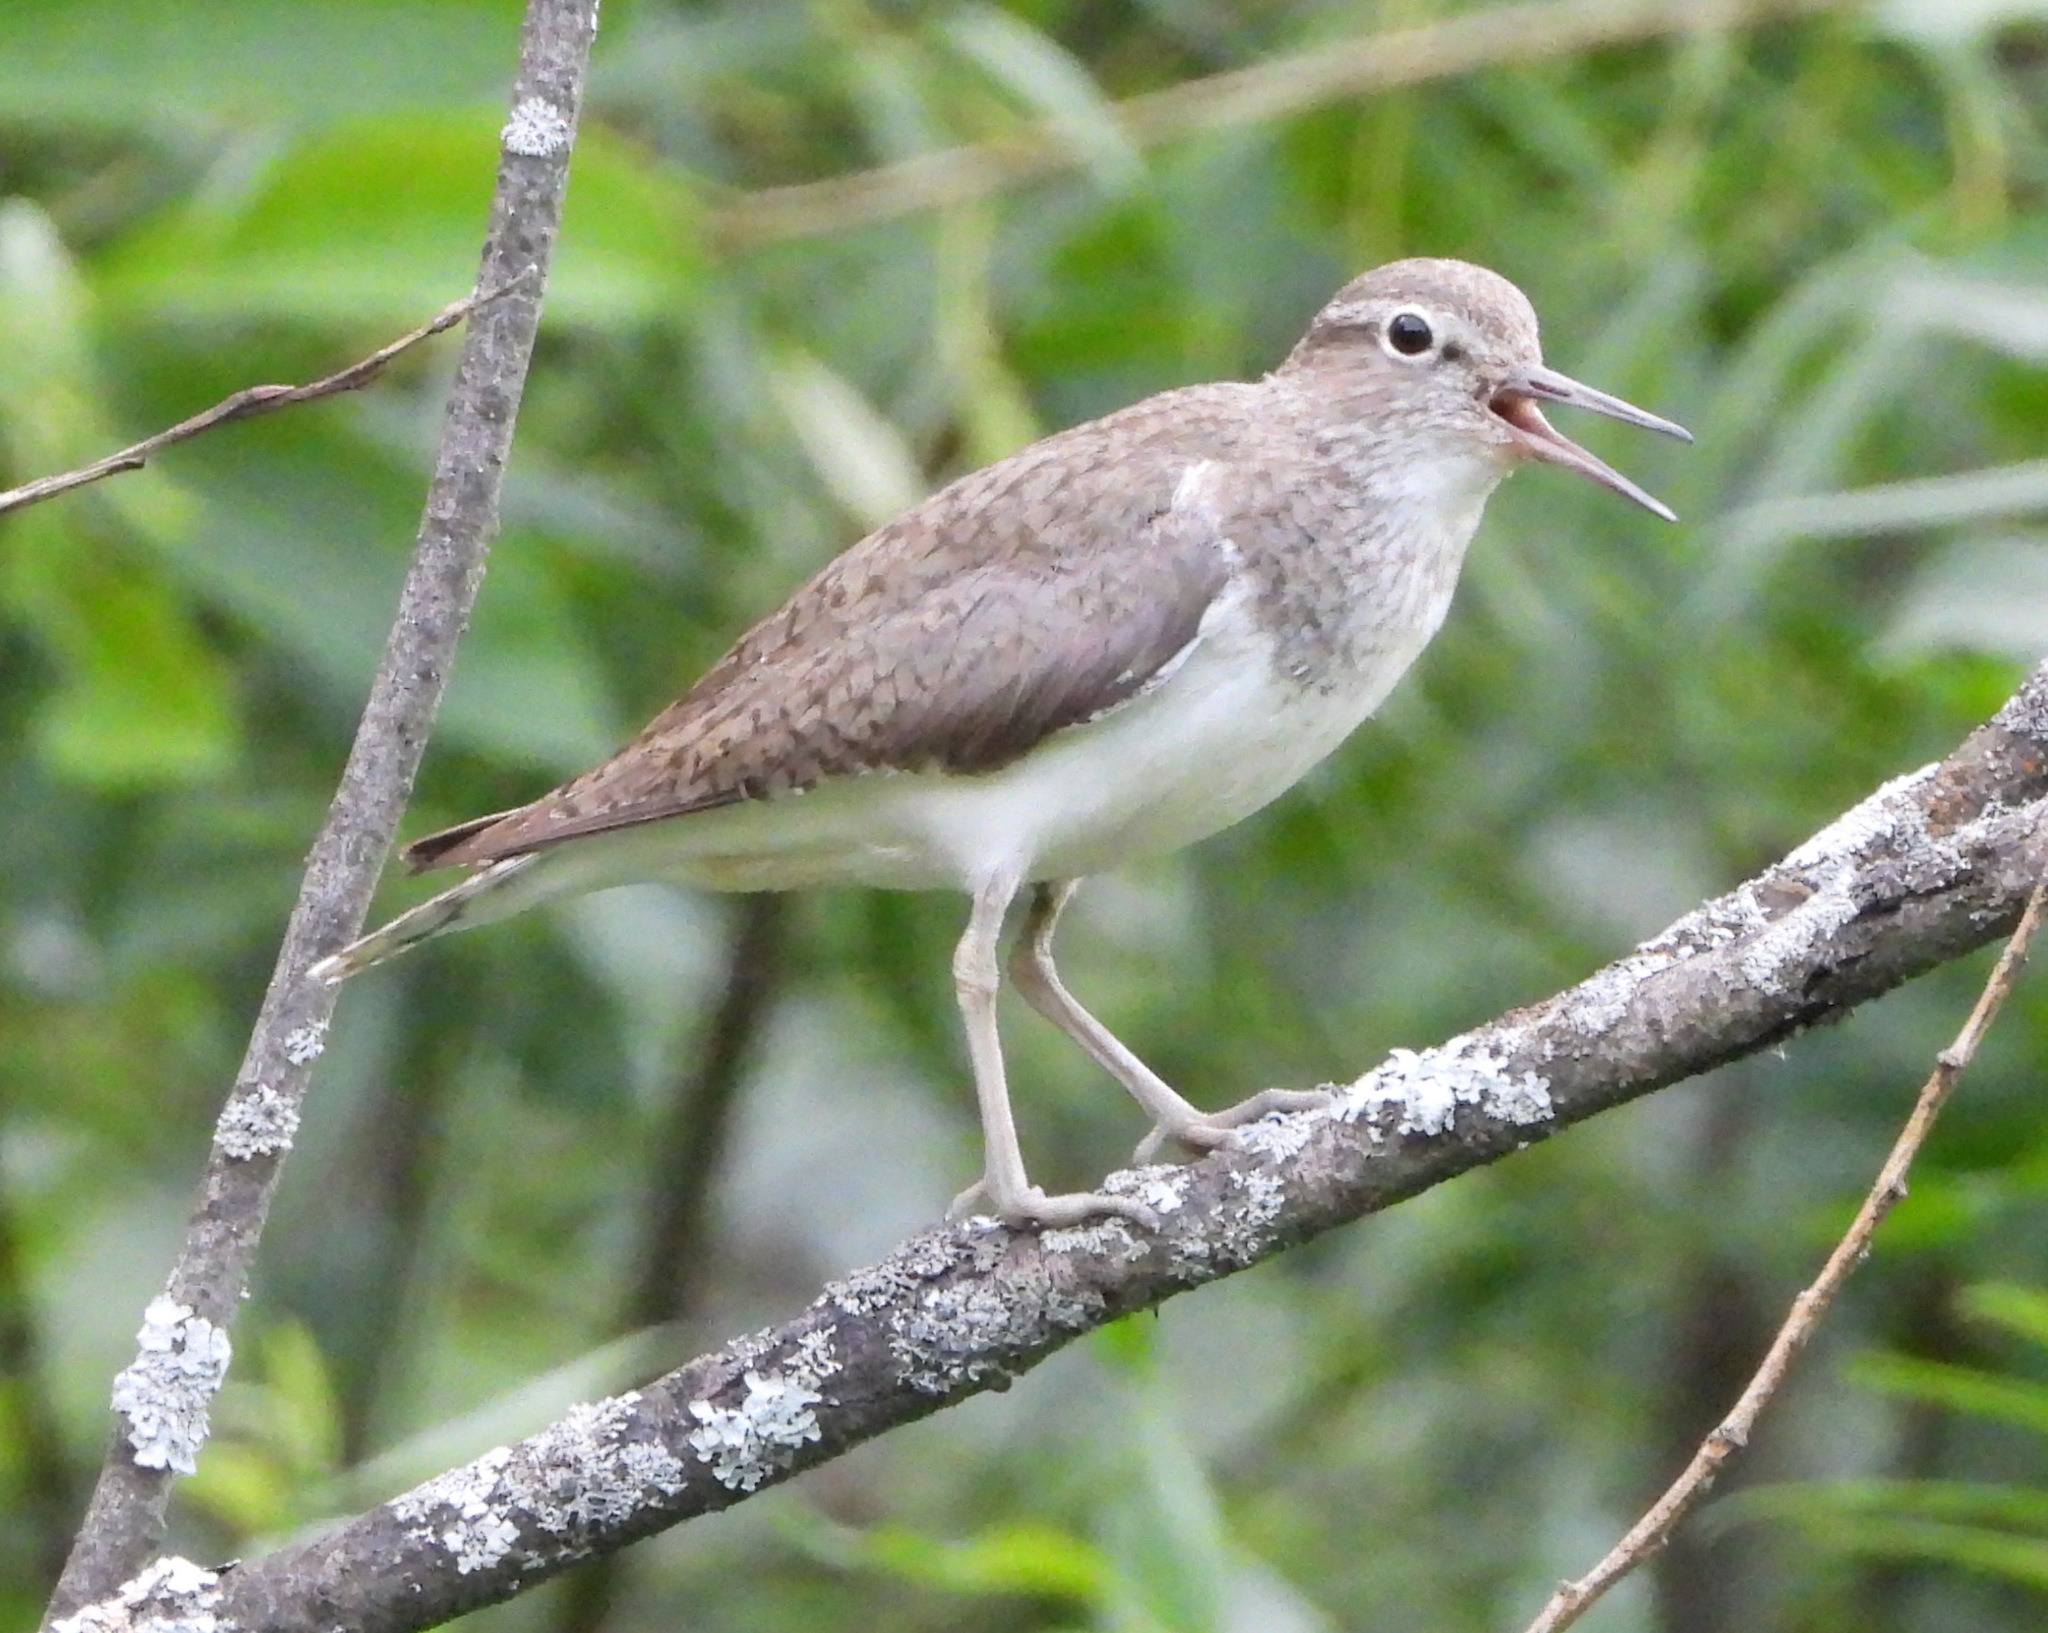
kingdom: Animalia
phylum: Chordata
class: Aves
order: Charadriiformes
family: Scolopacidae
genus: Actitis
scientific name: Actitis hypoleucos
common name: Common sandpiper
